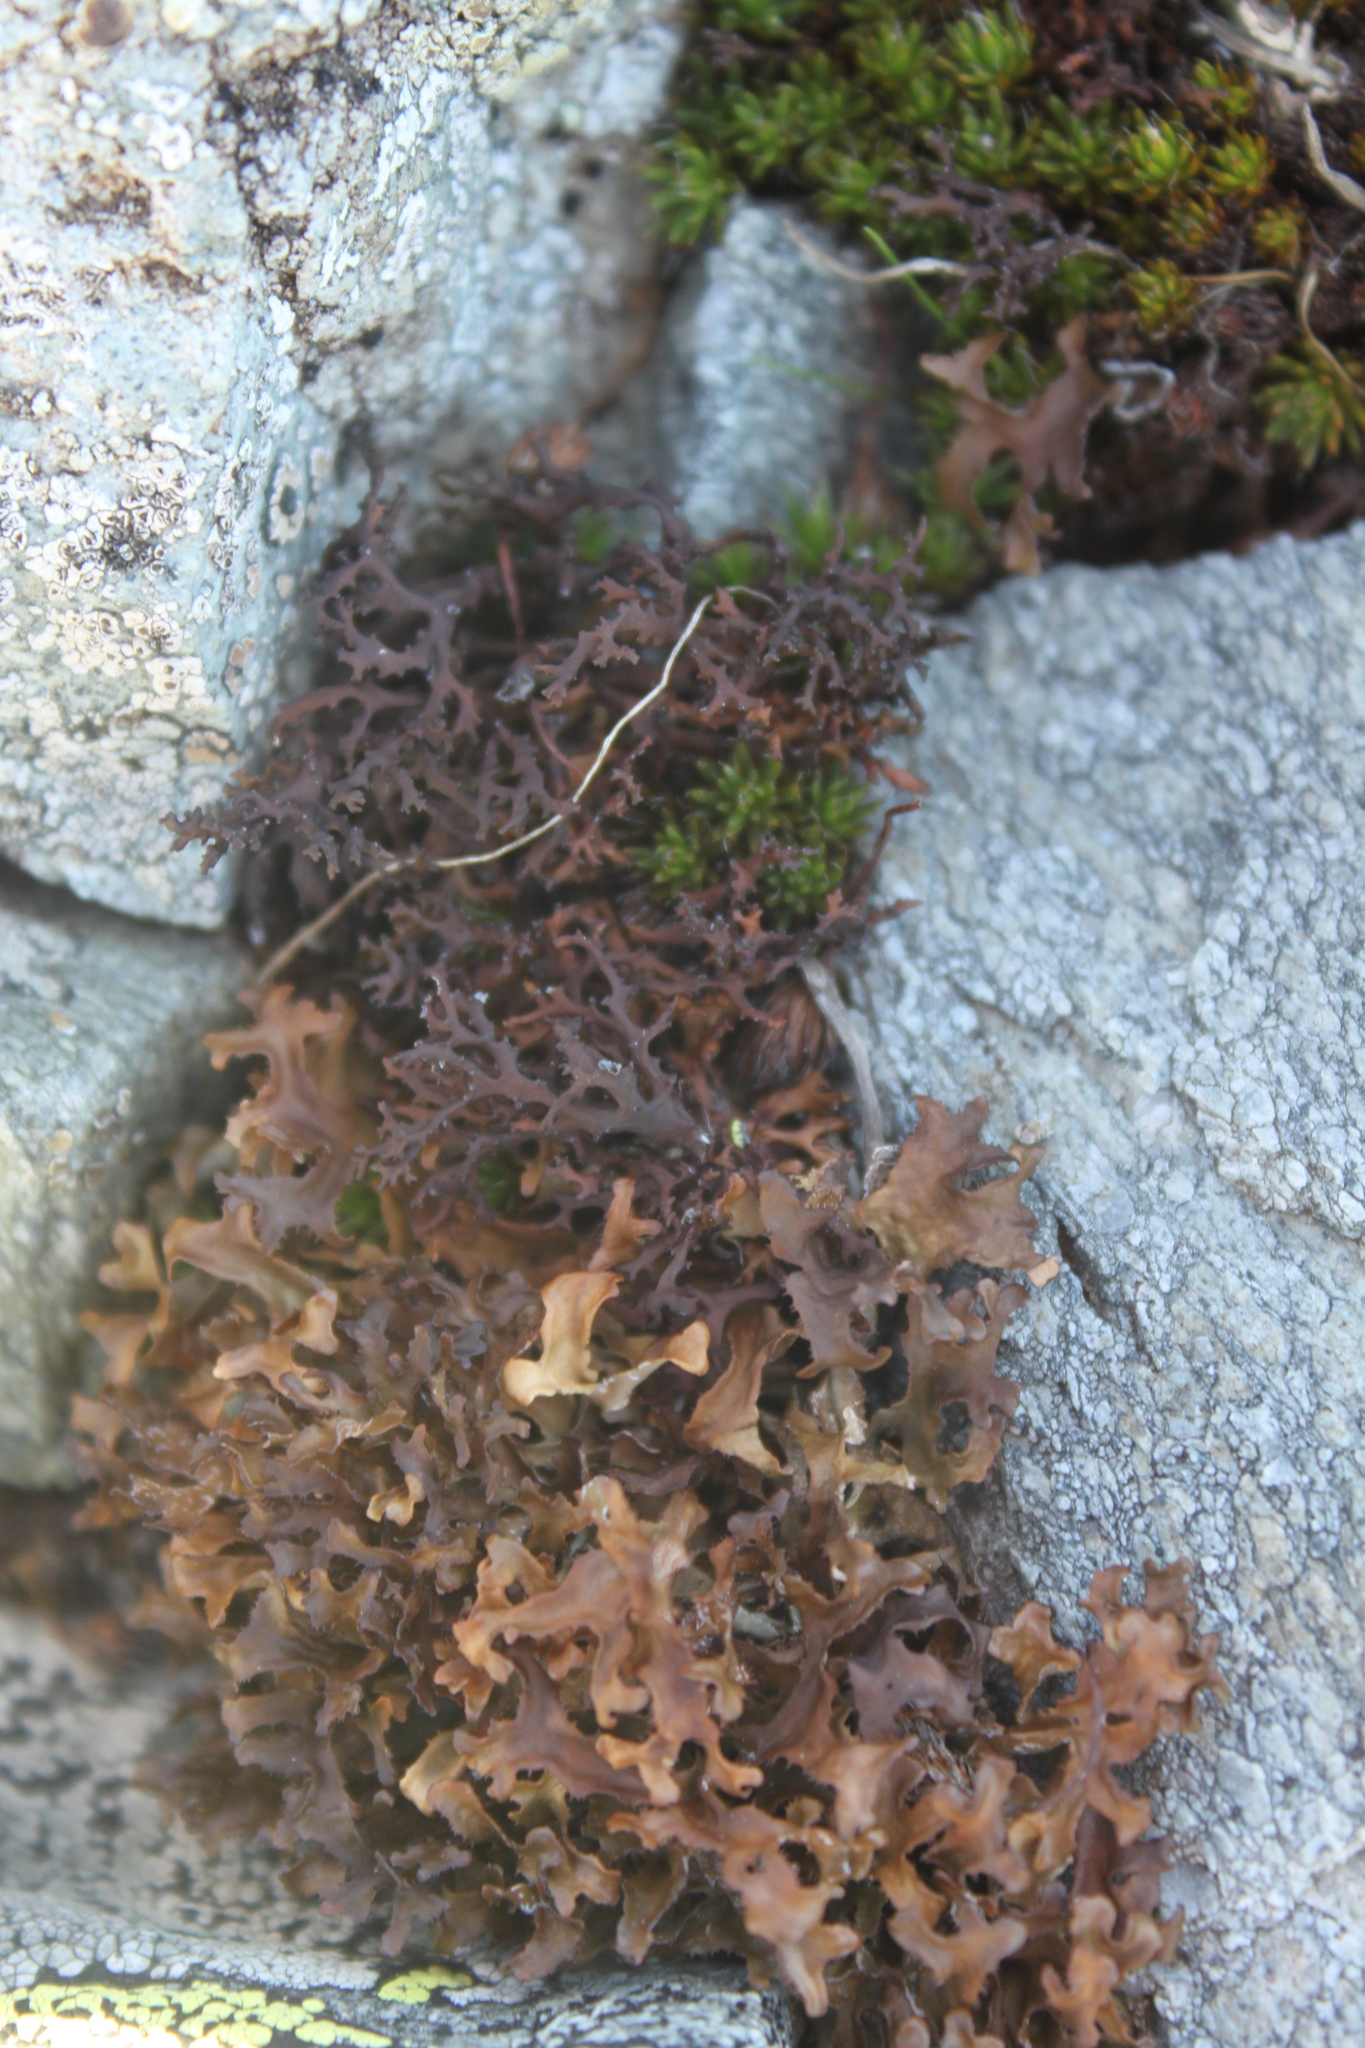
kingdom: Fungi
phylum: Ascomycota
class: Lecanoromycetes
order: Lecanorales
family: Parmeliaceae
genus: Cetraria
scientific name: Cetraria islandica
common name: Iceland lichen
